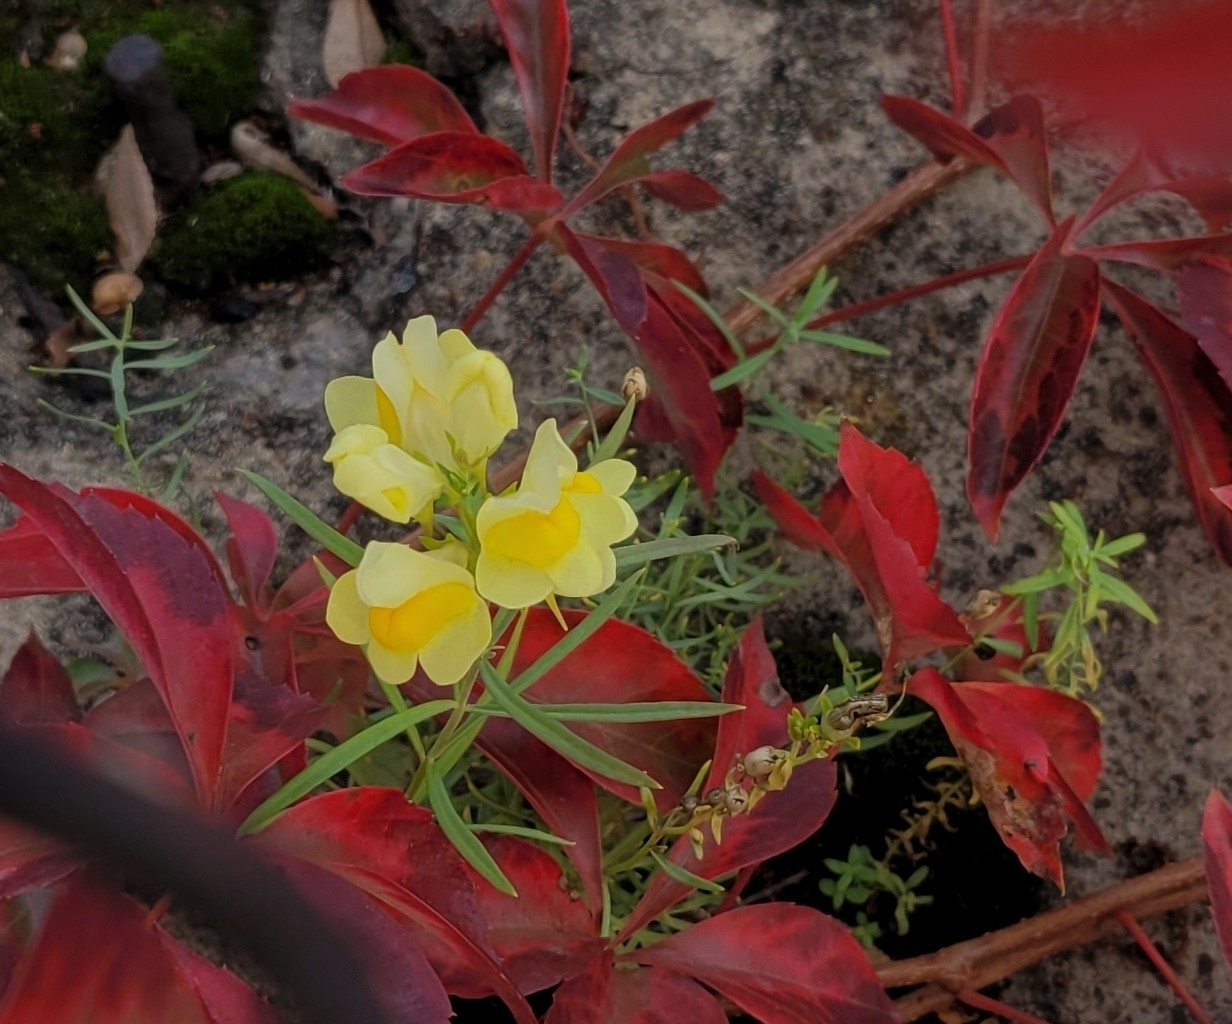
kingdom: Plantae
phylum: Tracheophyta
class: Magnoliopsida
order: Lamiales
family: Plantaginaceae
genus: Linaria
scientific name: Linaria vulgaris
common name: Butter and eggs
